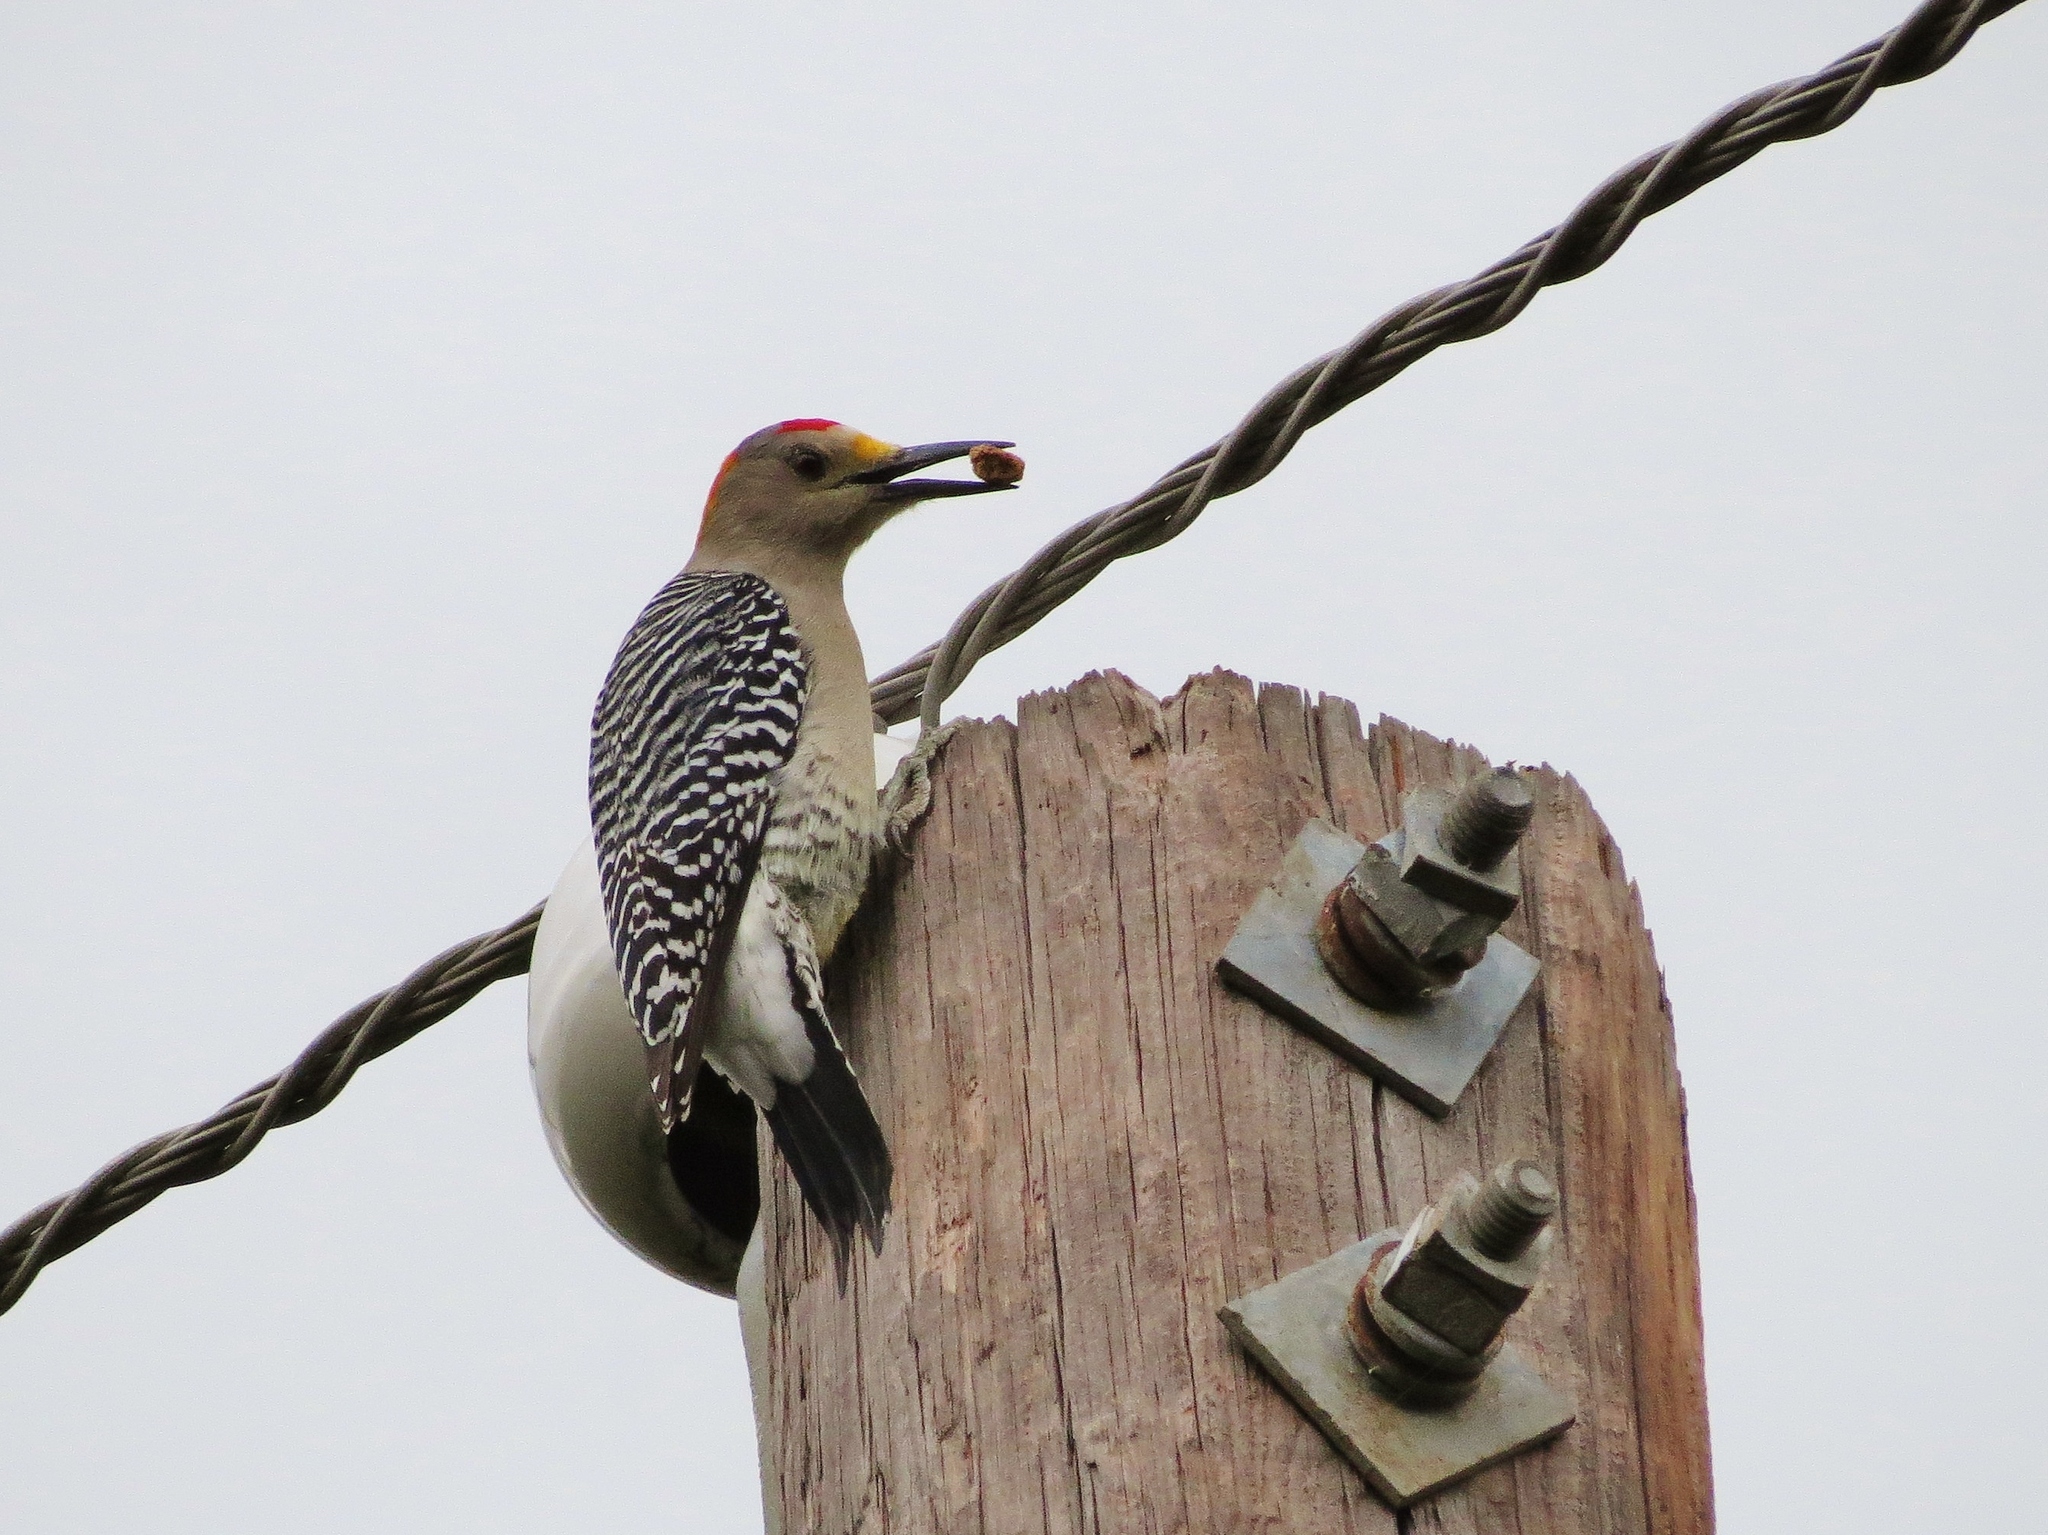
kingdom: Animalia
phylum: Chordata
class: Aves
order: Piciformes
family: Picidae
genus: Melanerpes
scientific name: Melanerpes aurifrons
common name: Golden-fronted woodpecker
